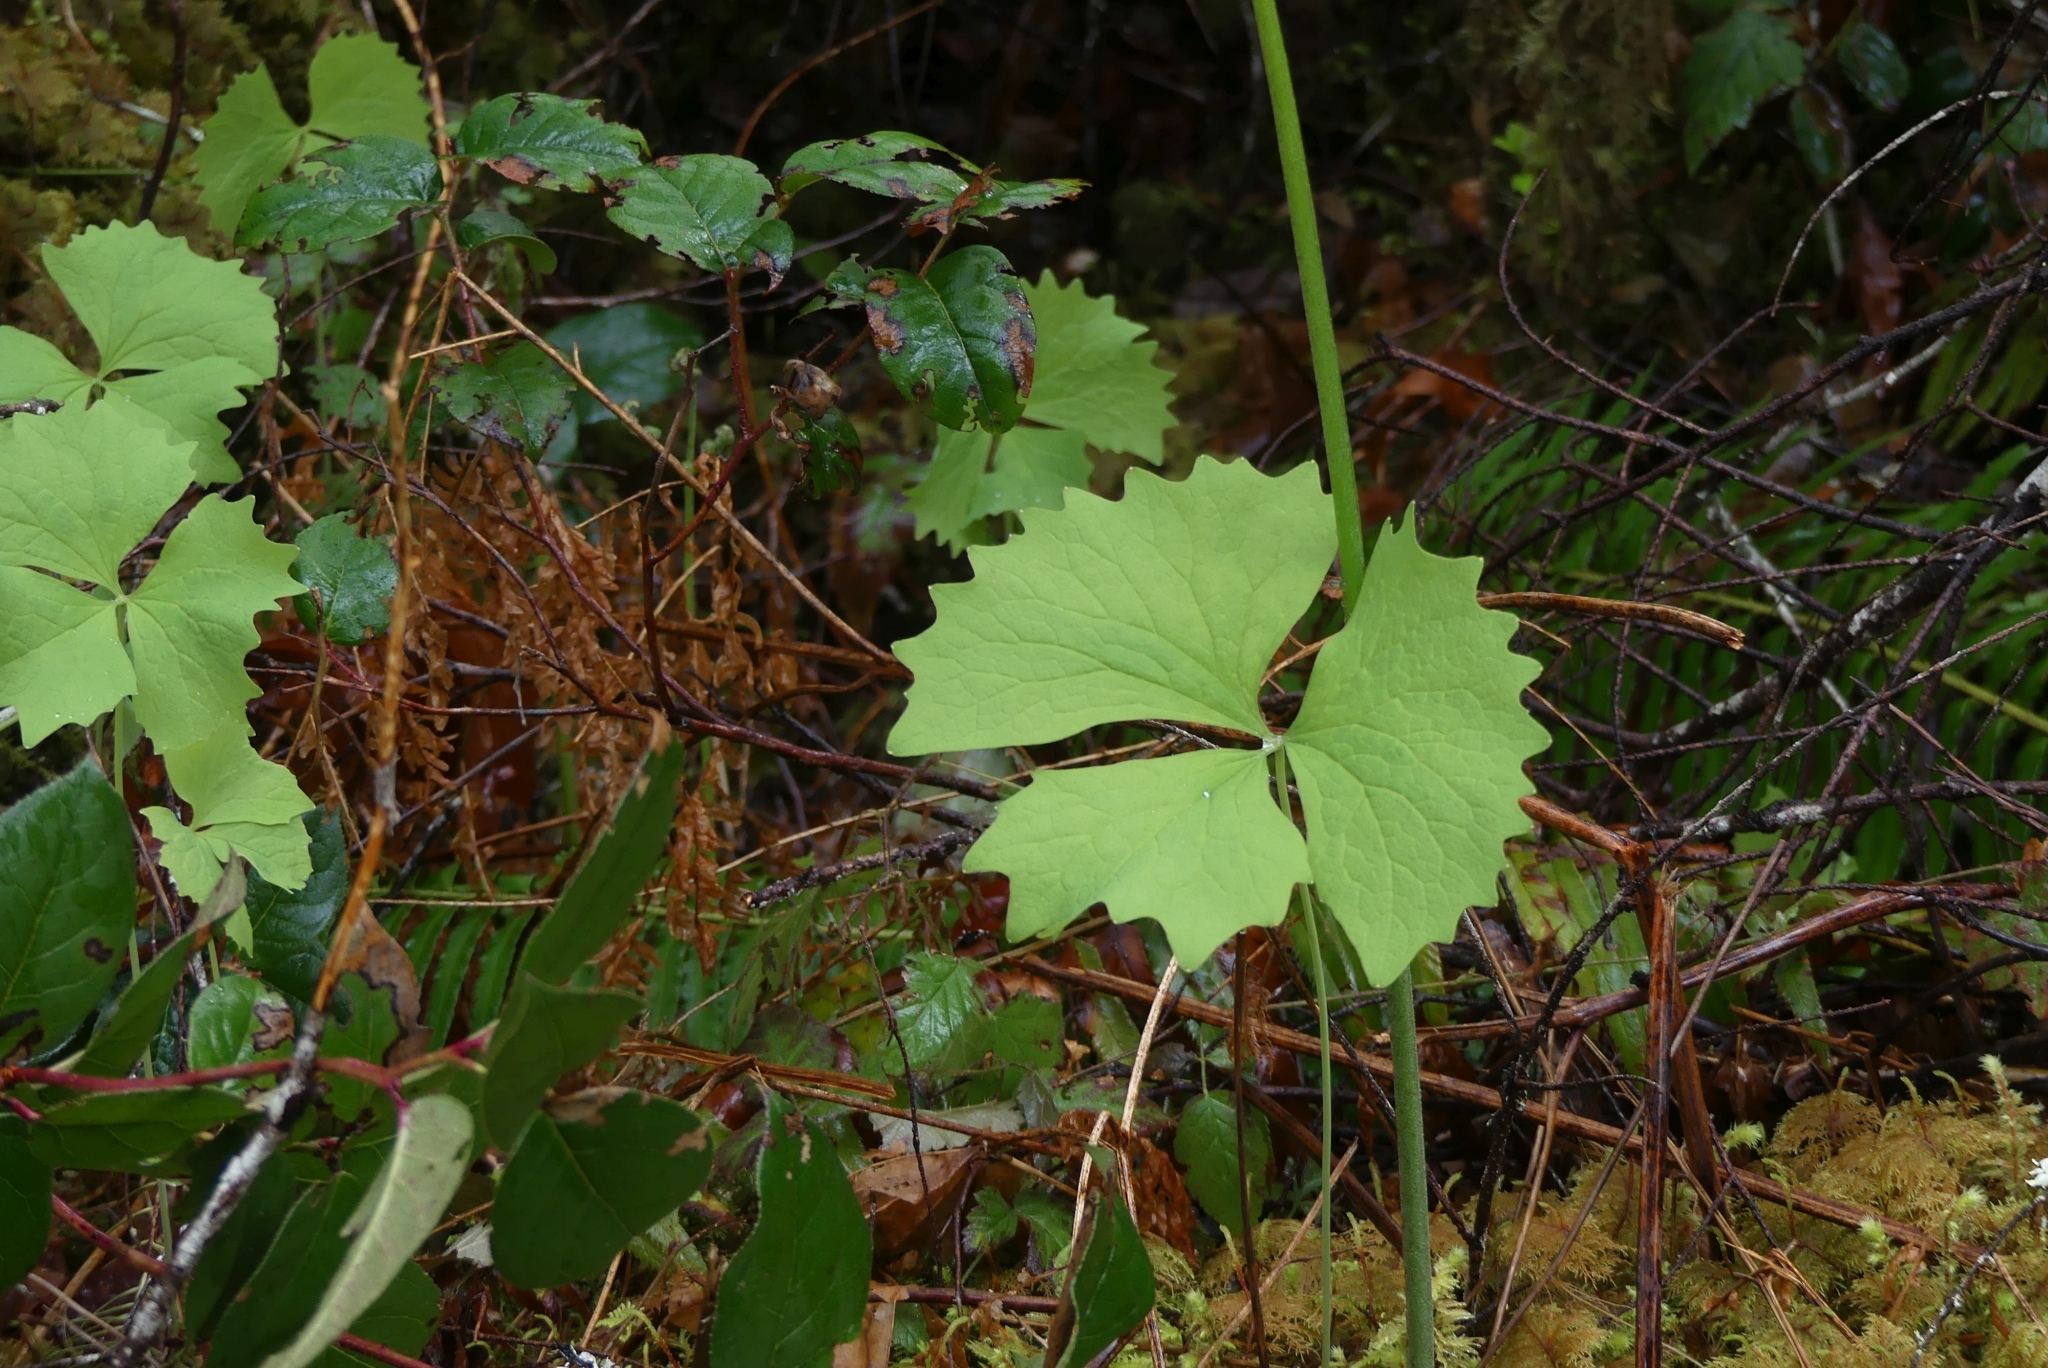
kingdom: Plantae
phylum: Tracheophyta
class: Magnoliopsida
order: Ranunculales
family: Berberidaceae
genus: Achlys
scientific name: Achlys triphylla
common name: Vanilla-leaf
